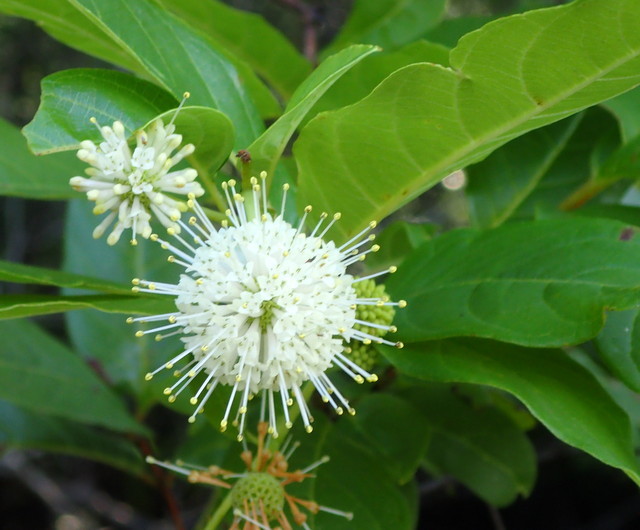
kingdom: Plantae
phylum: Tracheophyta
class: Magnoliopsida
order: Gentianales
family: Rubiaceae
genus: Cephalanthus
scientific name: Cephalanthus occidentalis
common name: Button-willow
